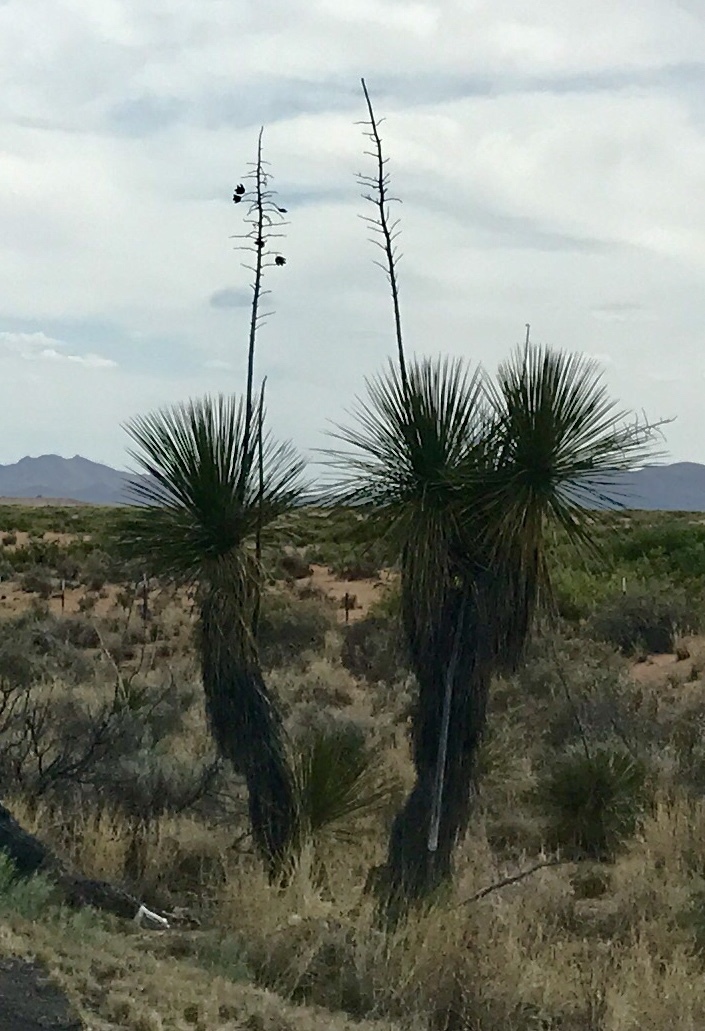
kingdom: Plantae
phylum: Tracheophyta
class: Liliopsida
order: Asparagales
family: Asparagaceae
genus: Yucca
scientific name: Yucca elata
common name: Palmella
